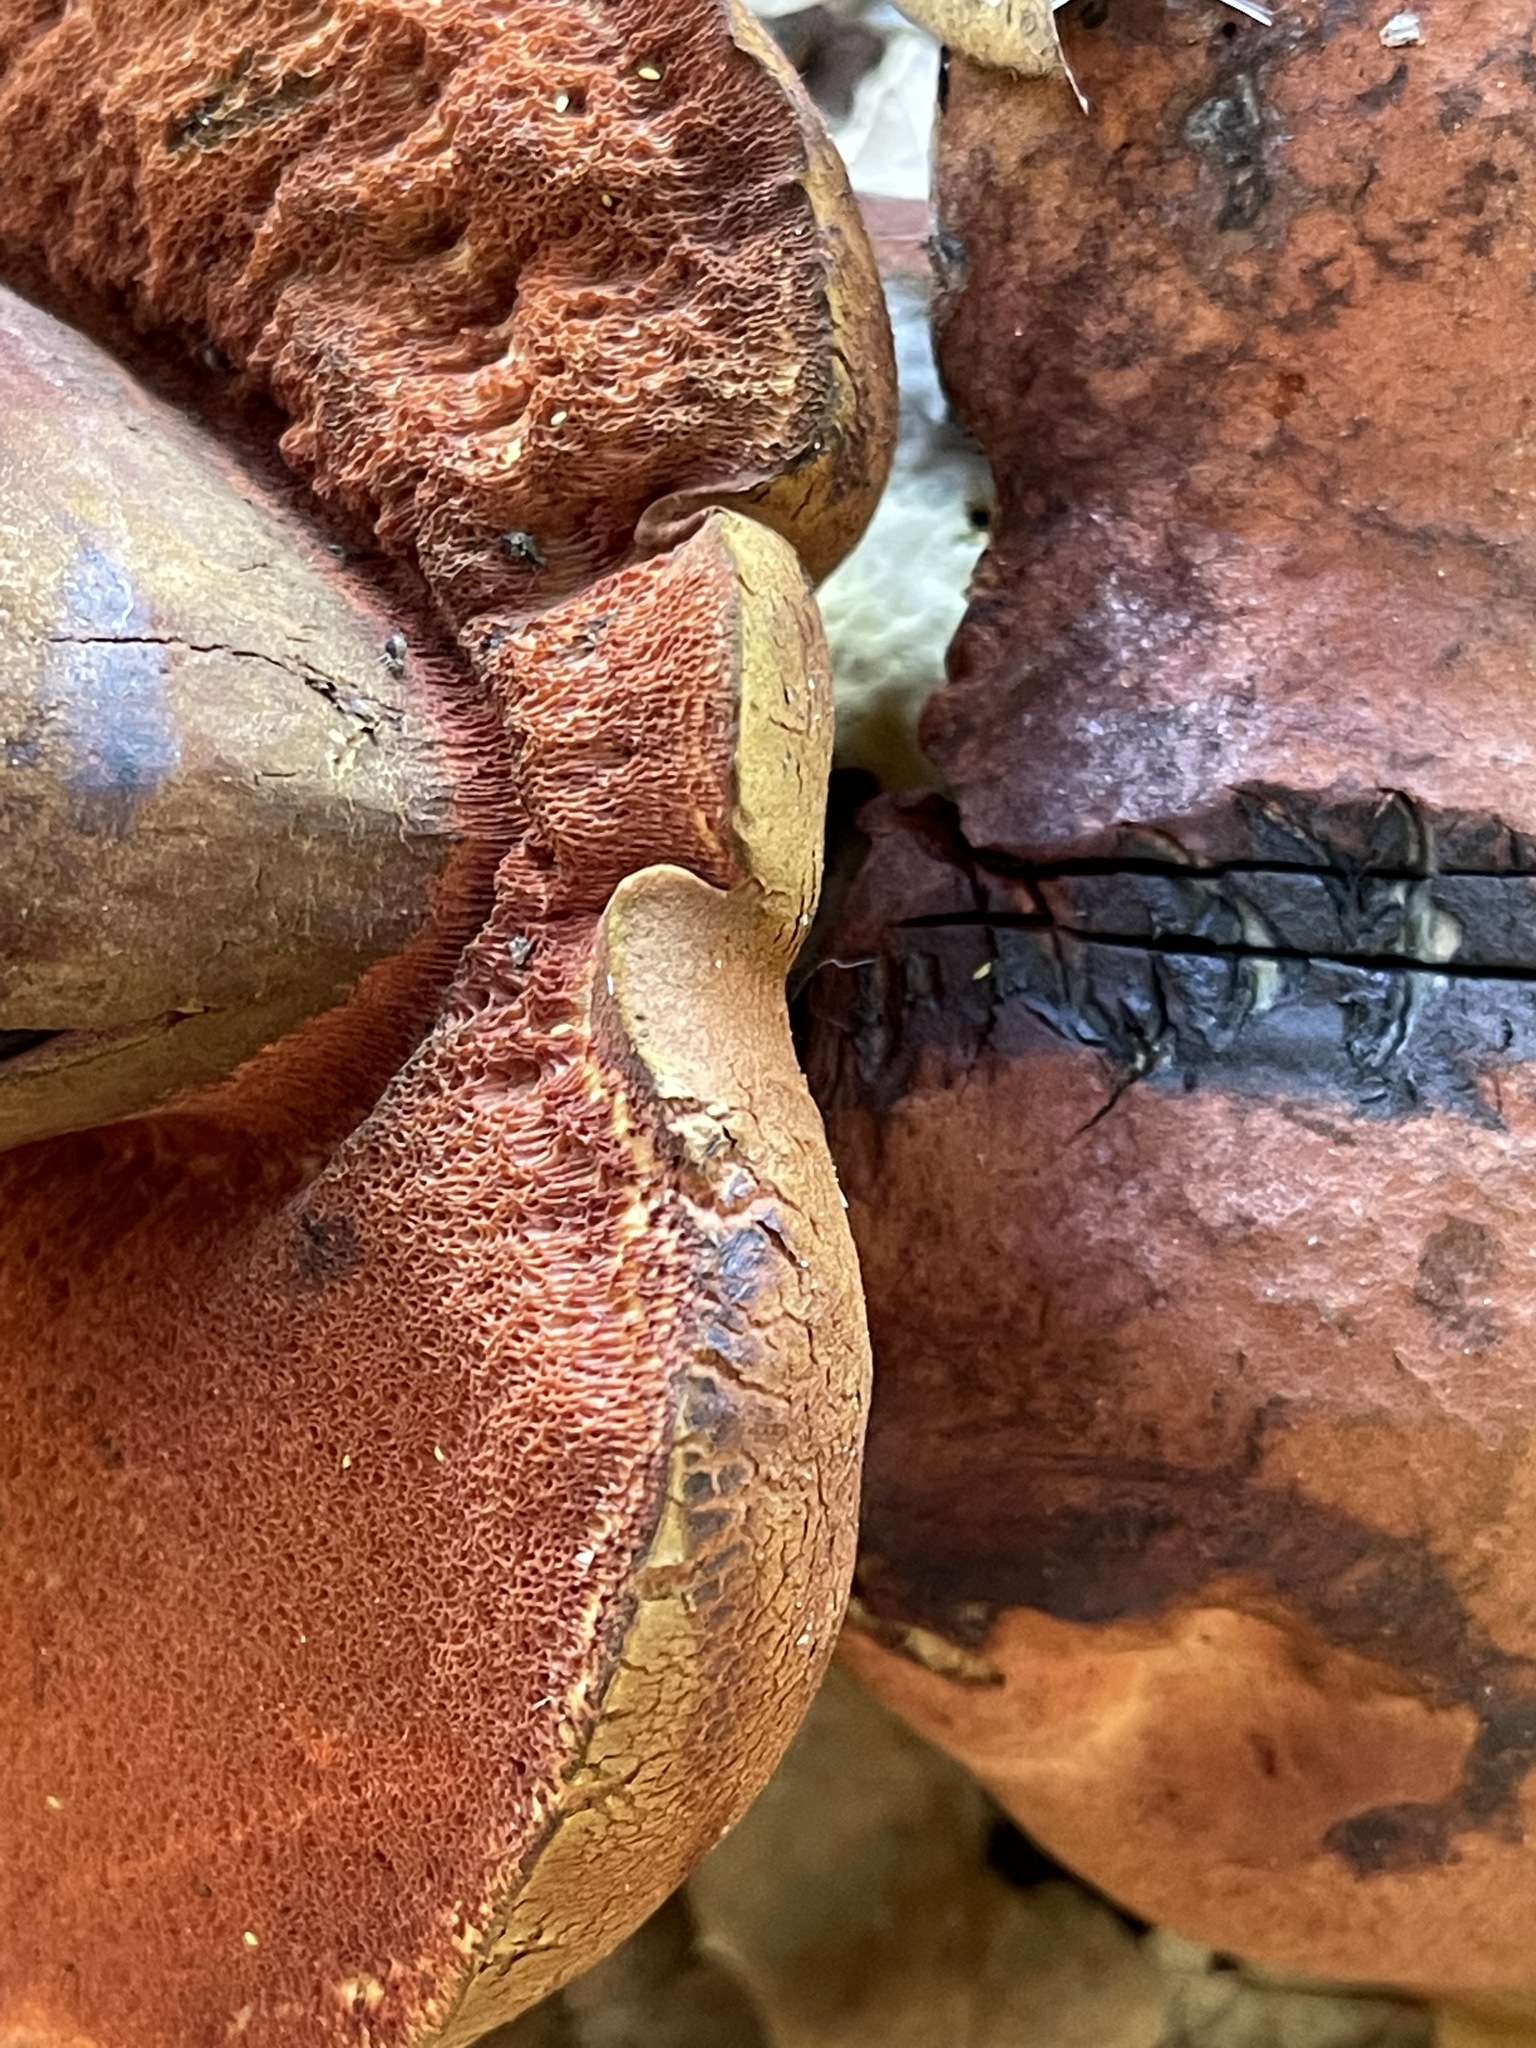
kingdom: Fungi
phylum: Basidiomycota
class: Agaricomycetes
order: Boletales
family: Boletaceae
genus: Suillellus
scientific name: Suillellus amygdalinus
